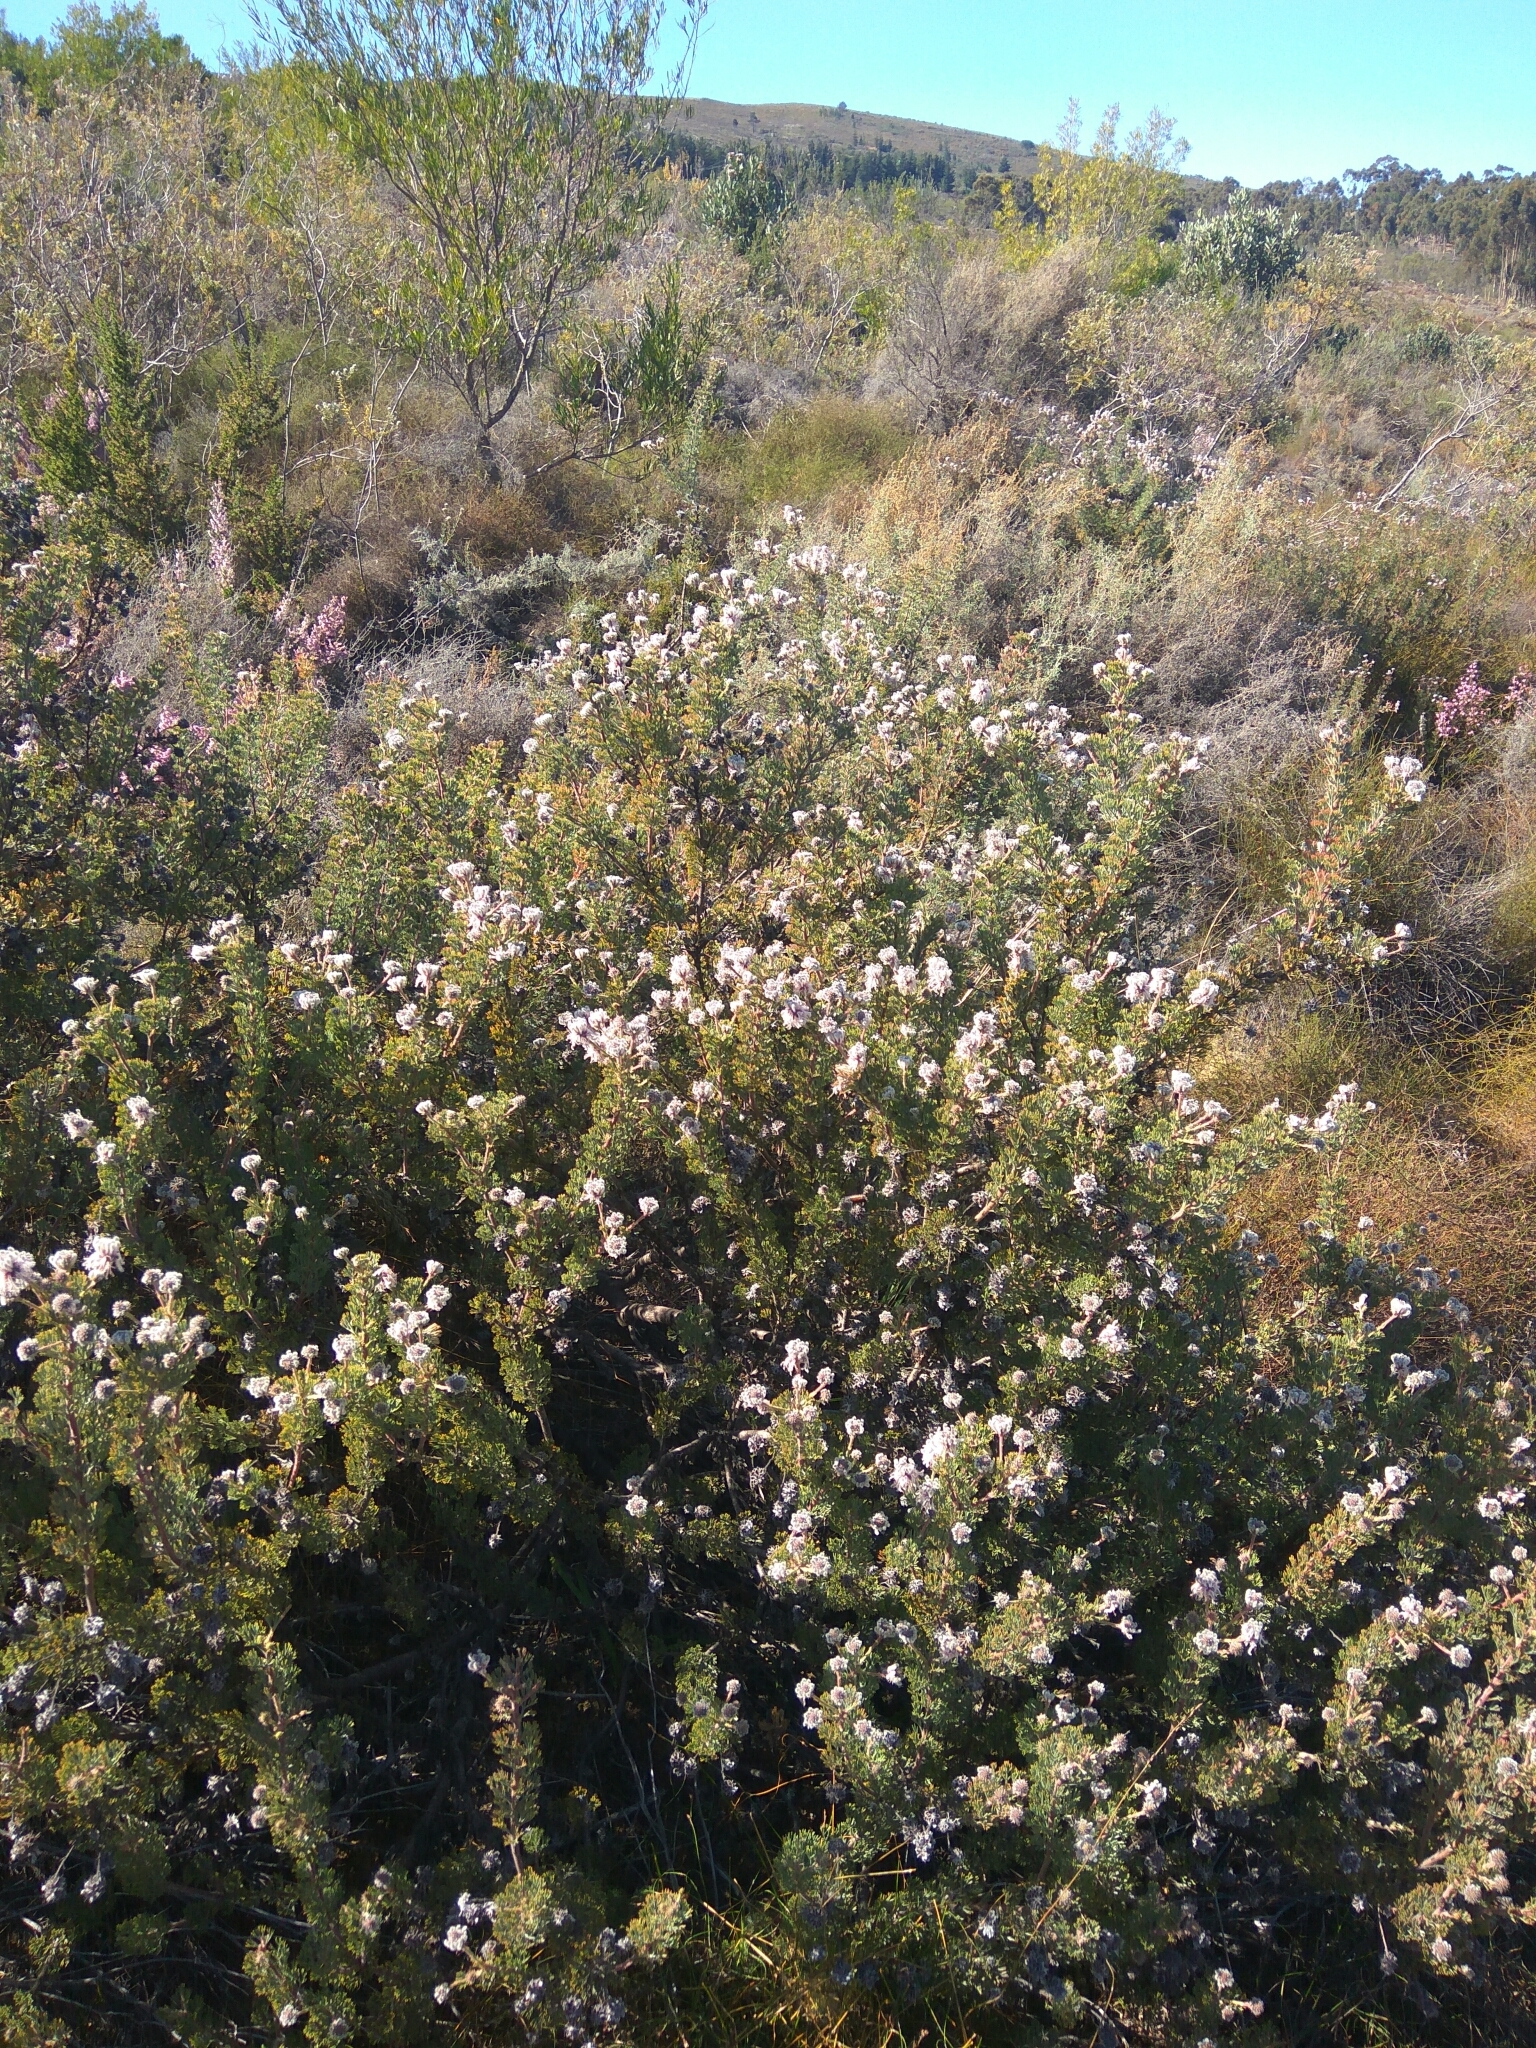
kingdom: Plantae
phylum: Tracheophyta
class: Magnoliopsida
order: Proteales
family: Proteaceae
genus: Serruria
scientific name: Serruria aitonii
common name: Marshmallow spiderhead
